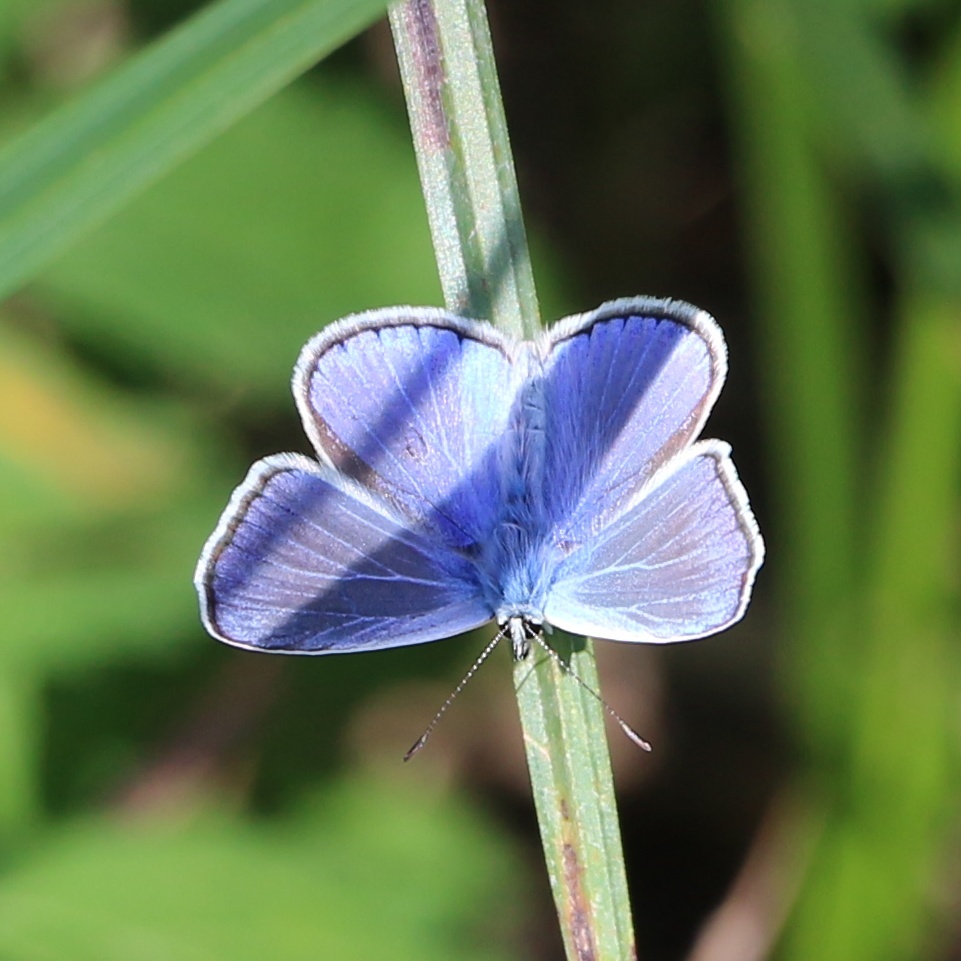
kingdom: Animalia
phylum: Arthropoda
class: Insecta
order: Lepidoptera
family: Lycaenidae
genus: Polyommatus
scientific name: Polyommatus icarus
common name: Common blue
